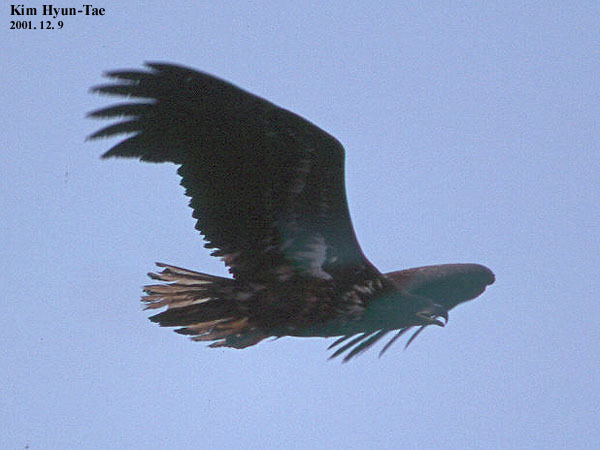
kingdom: Animalia
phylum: Chordata
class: Aves
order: Accipitriformes
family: Accipitridae
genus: Haliaeetus
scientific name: Haliaeetus albicilla
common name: White-tailed eagle
